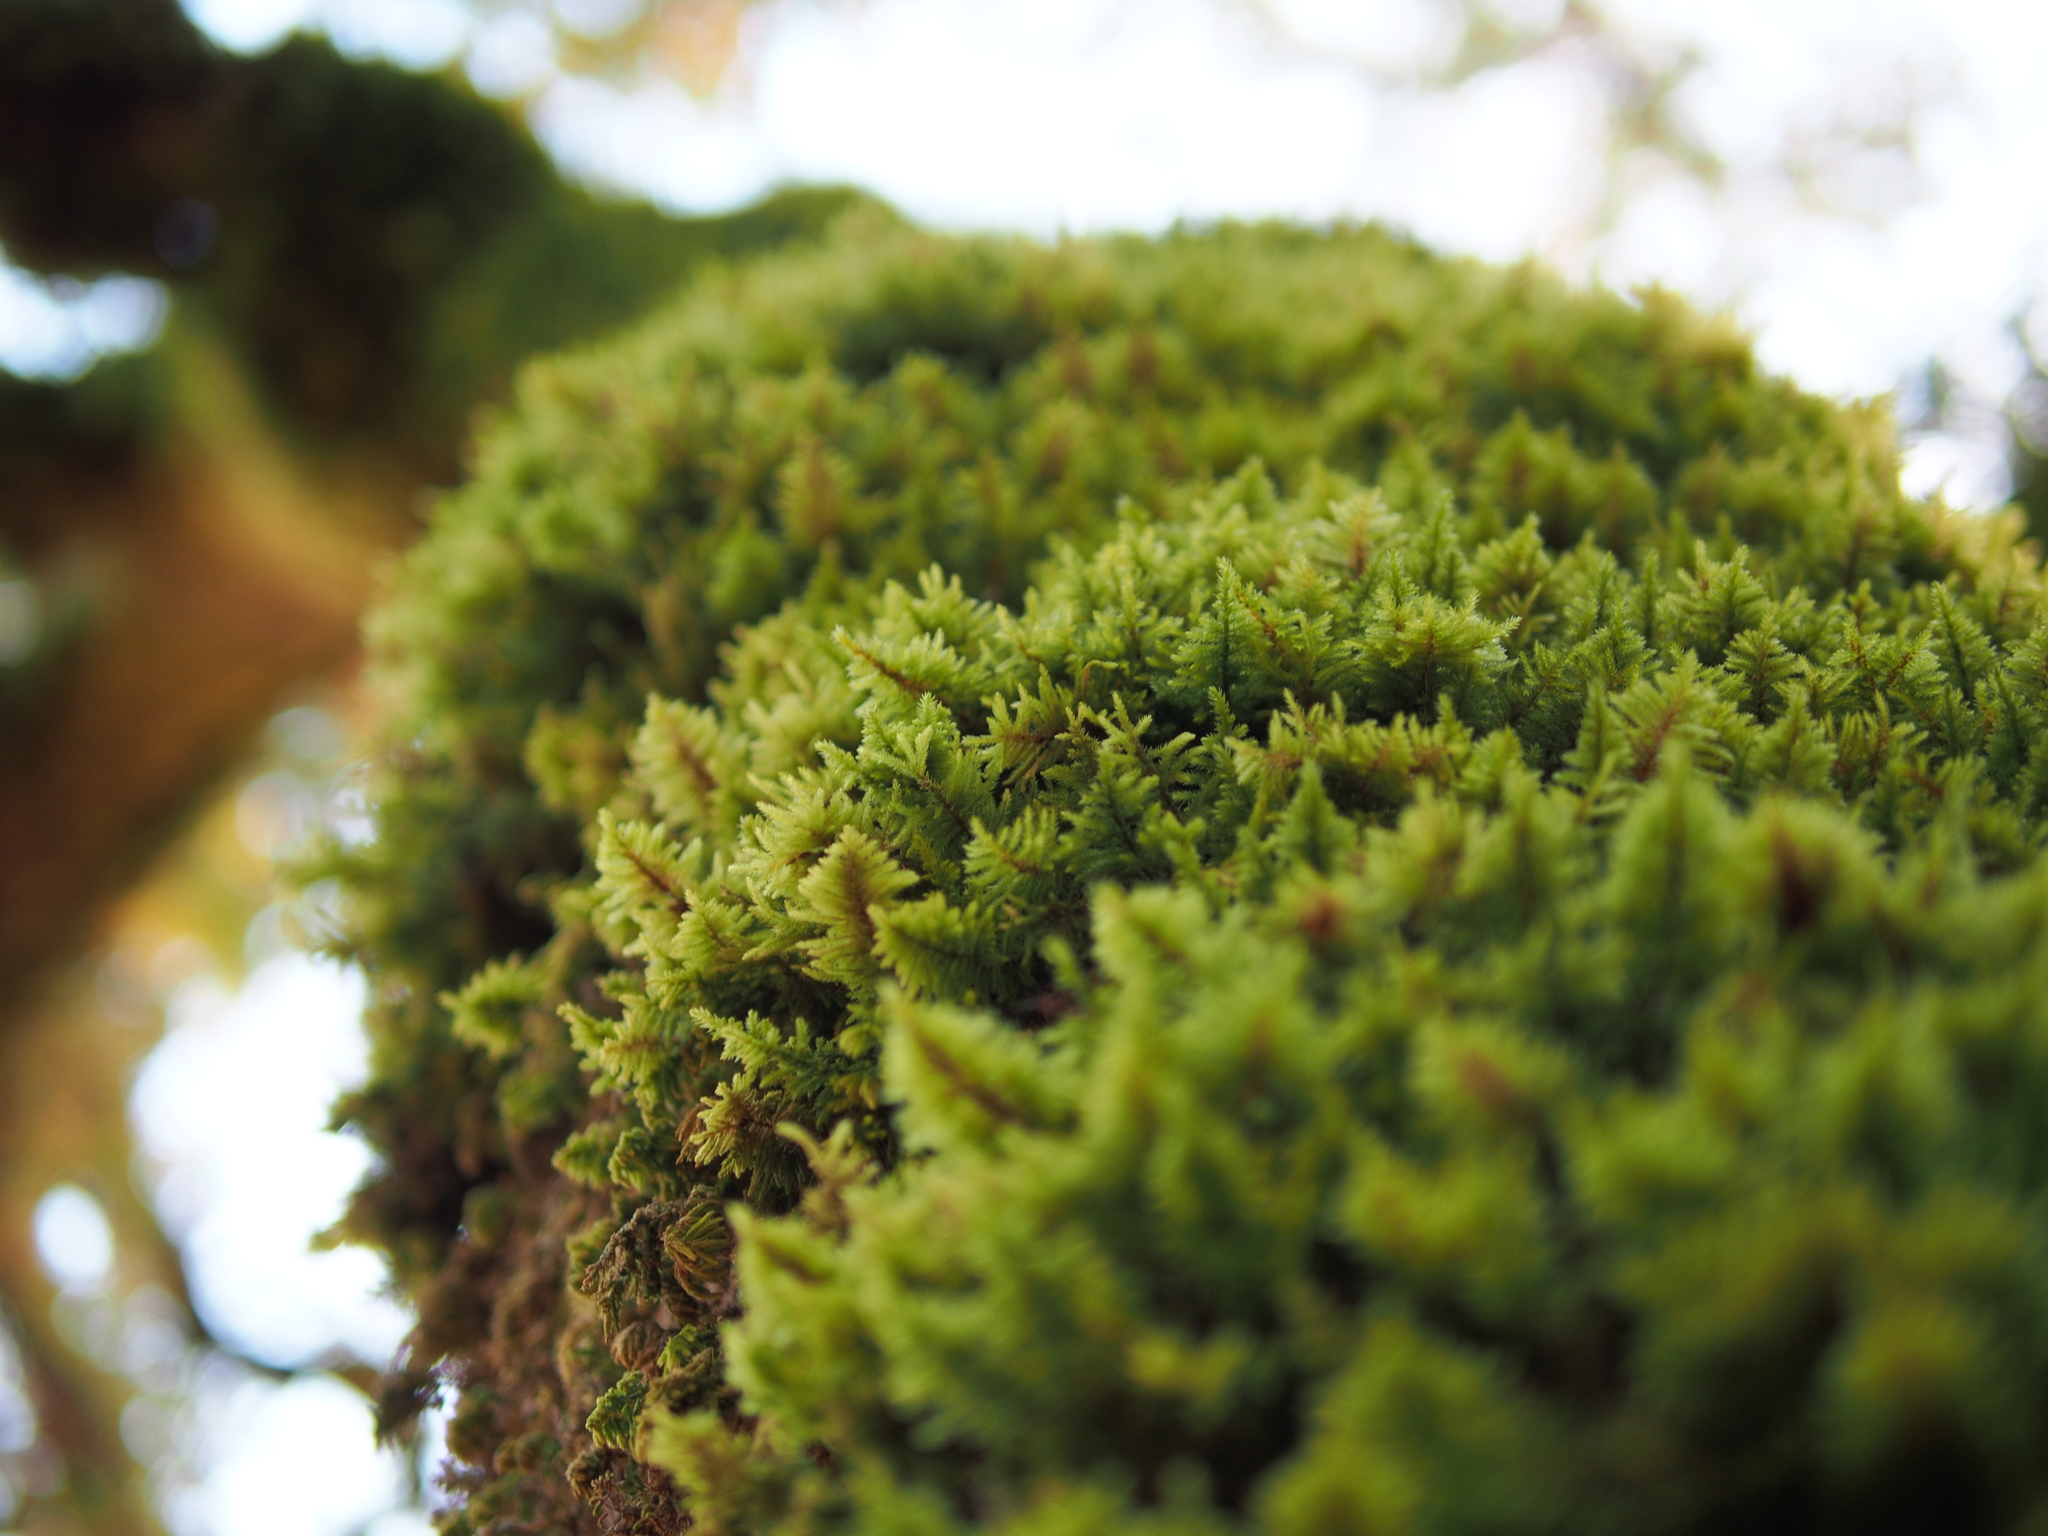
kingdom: Plantae
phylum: Bryophyta
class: Bryopsida
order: Hypnales
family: Cryphaeaceae
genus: Dendroalsia
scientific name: Dendroalsia abietina
